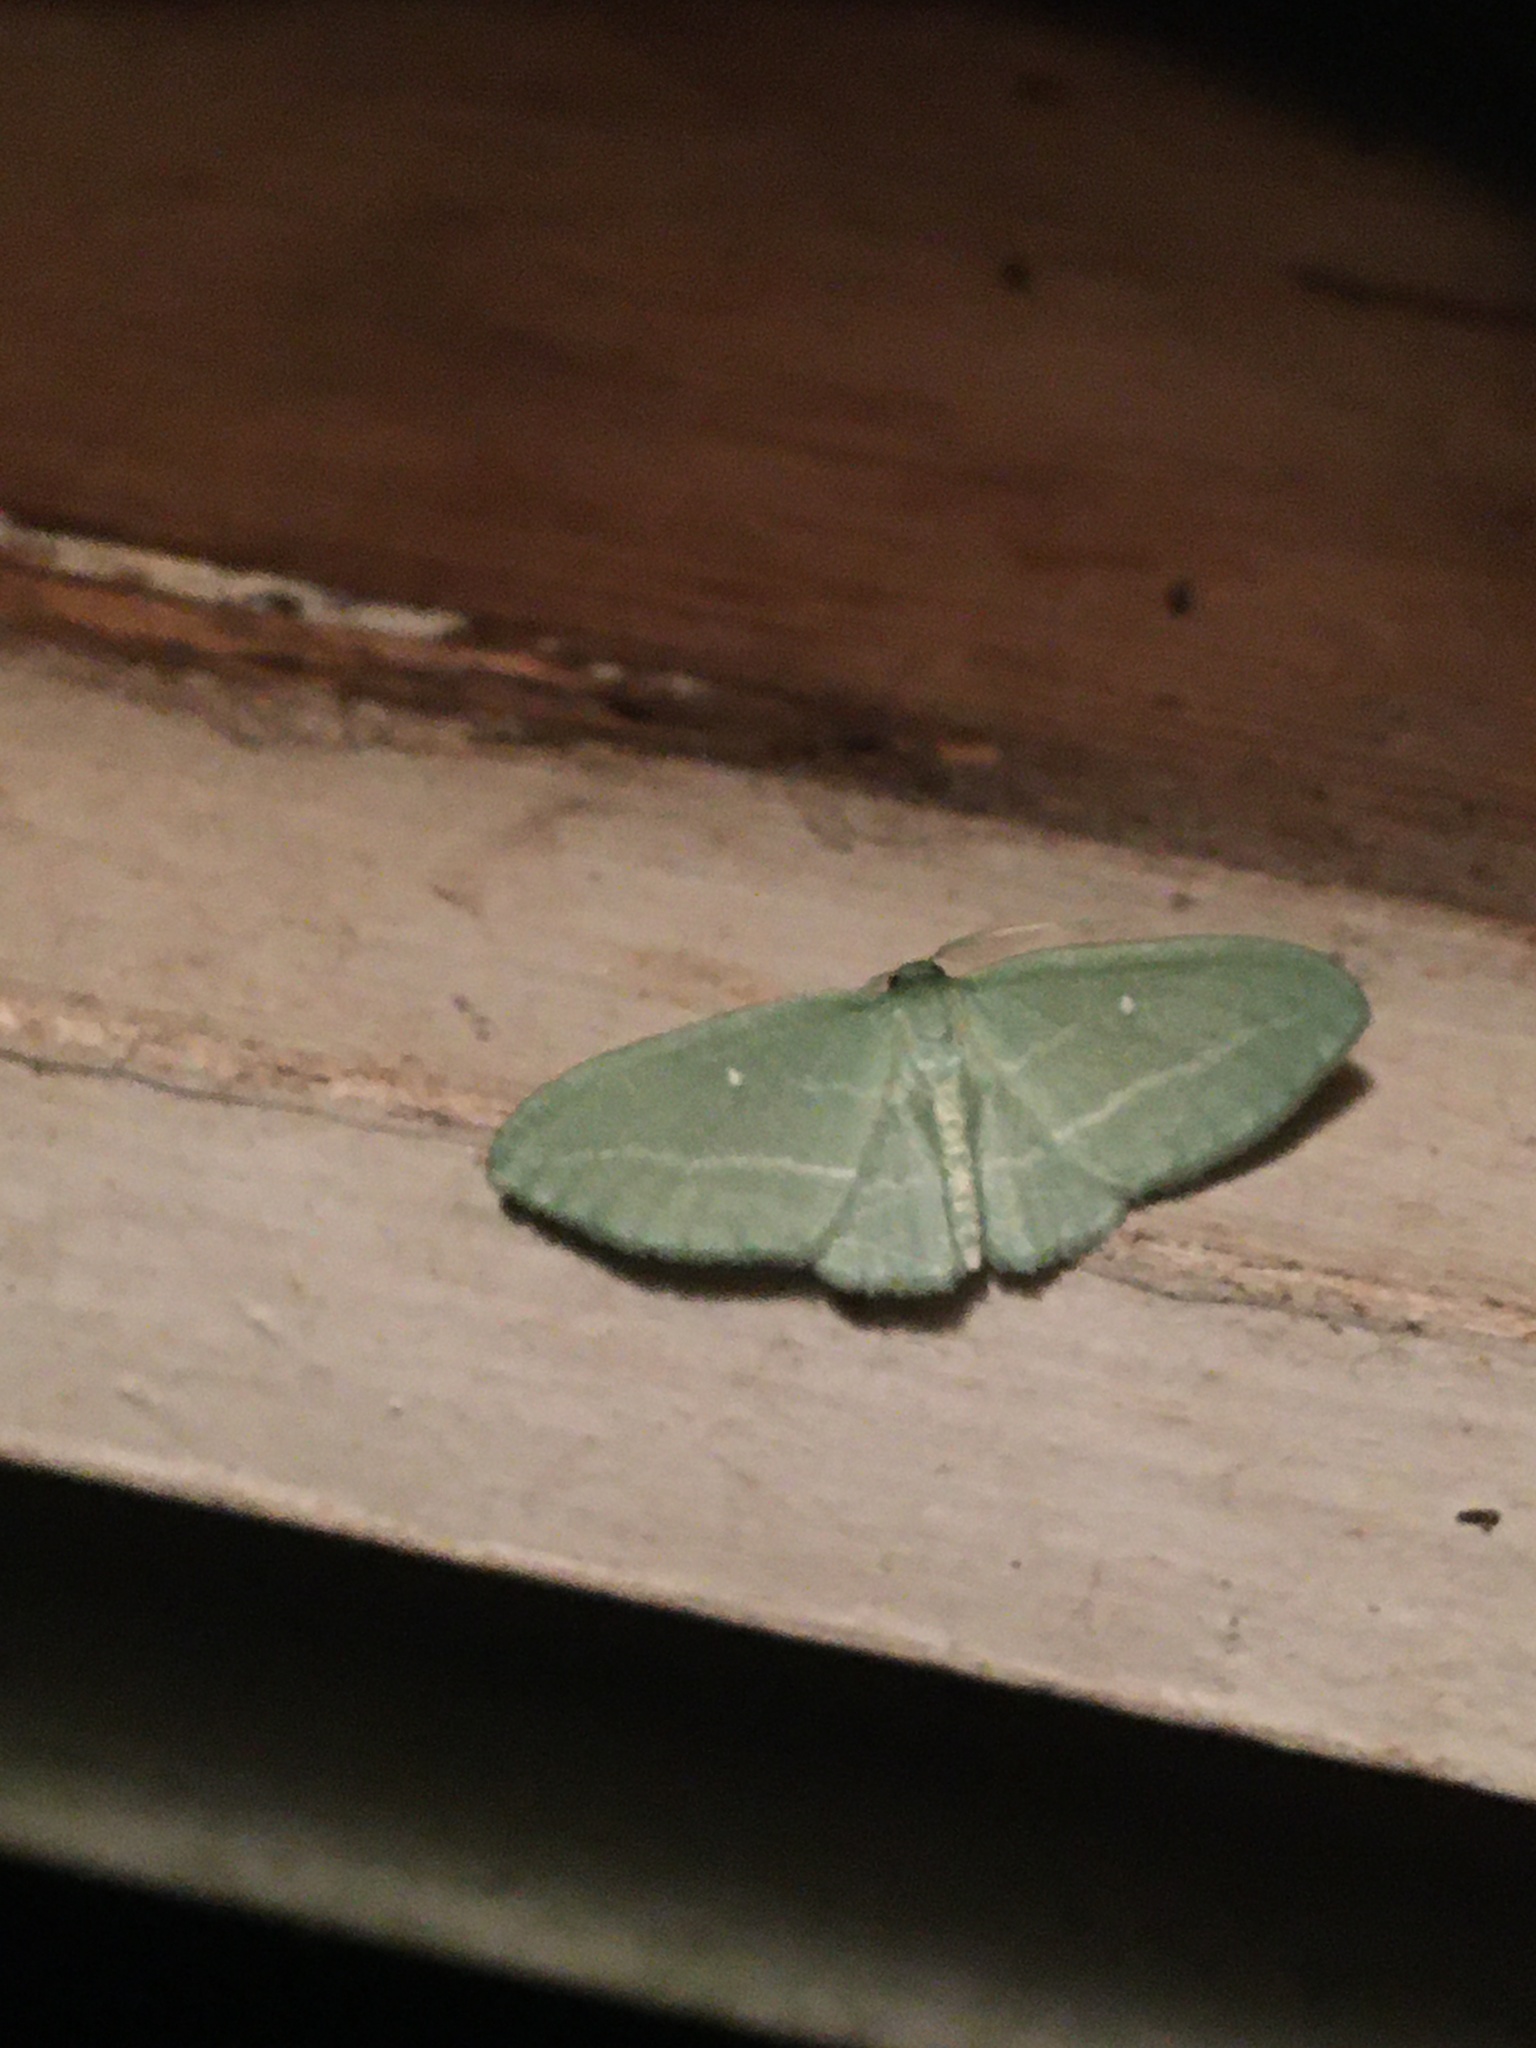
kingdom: Animalia
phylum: Arthropoda
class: Insecta
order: Lepidoptera
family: Geometridae
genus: Dyspteris
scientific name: Dyspteris abortivaria
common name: Bad-wing
